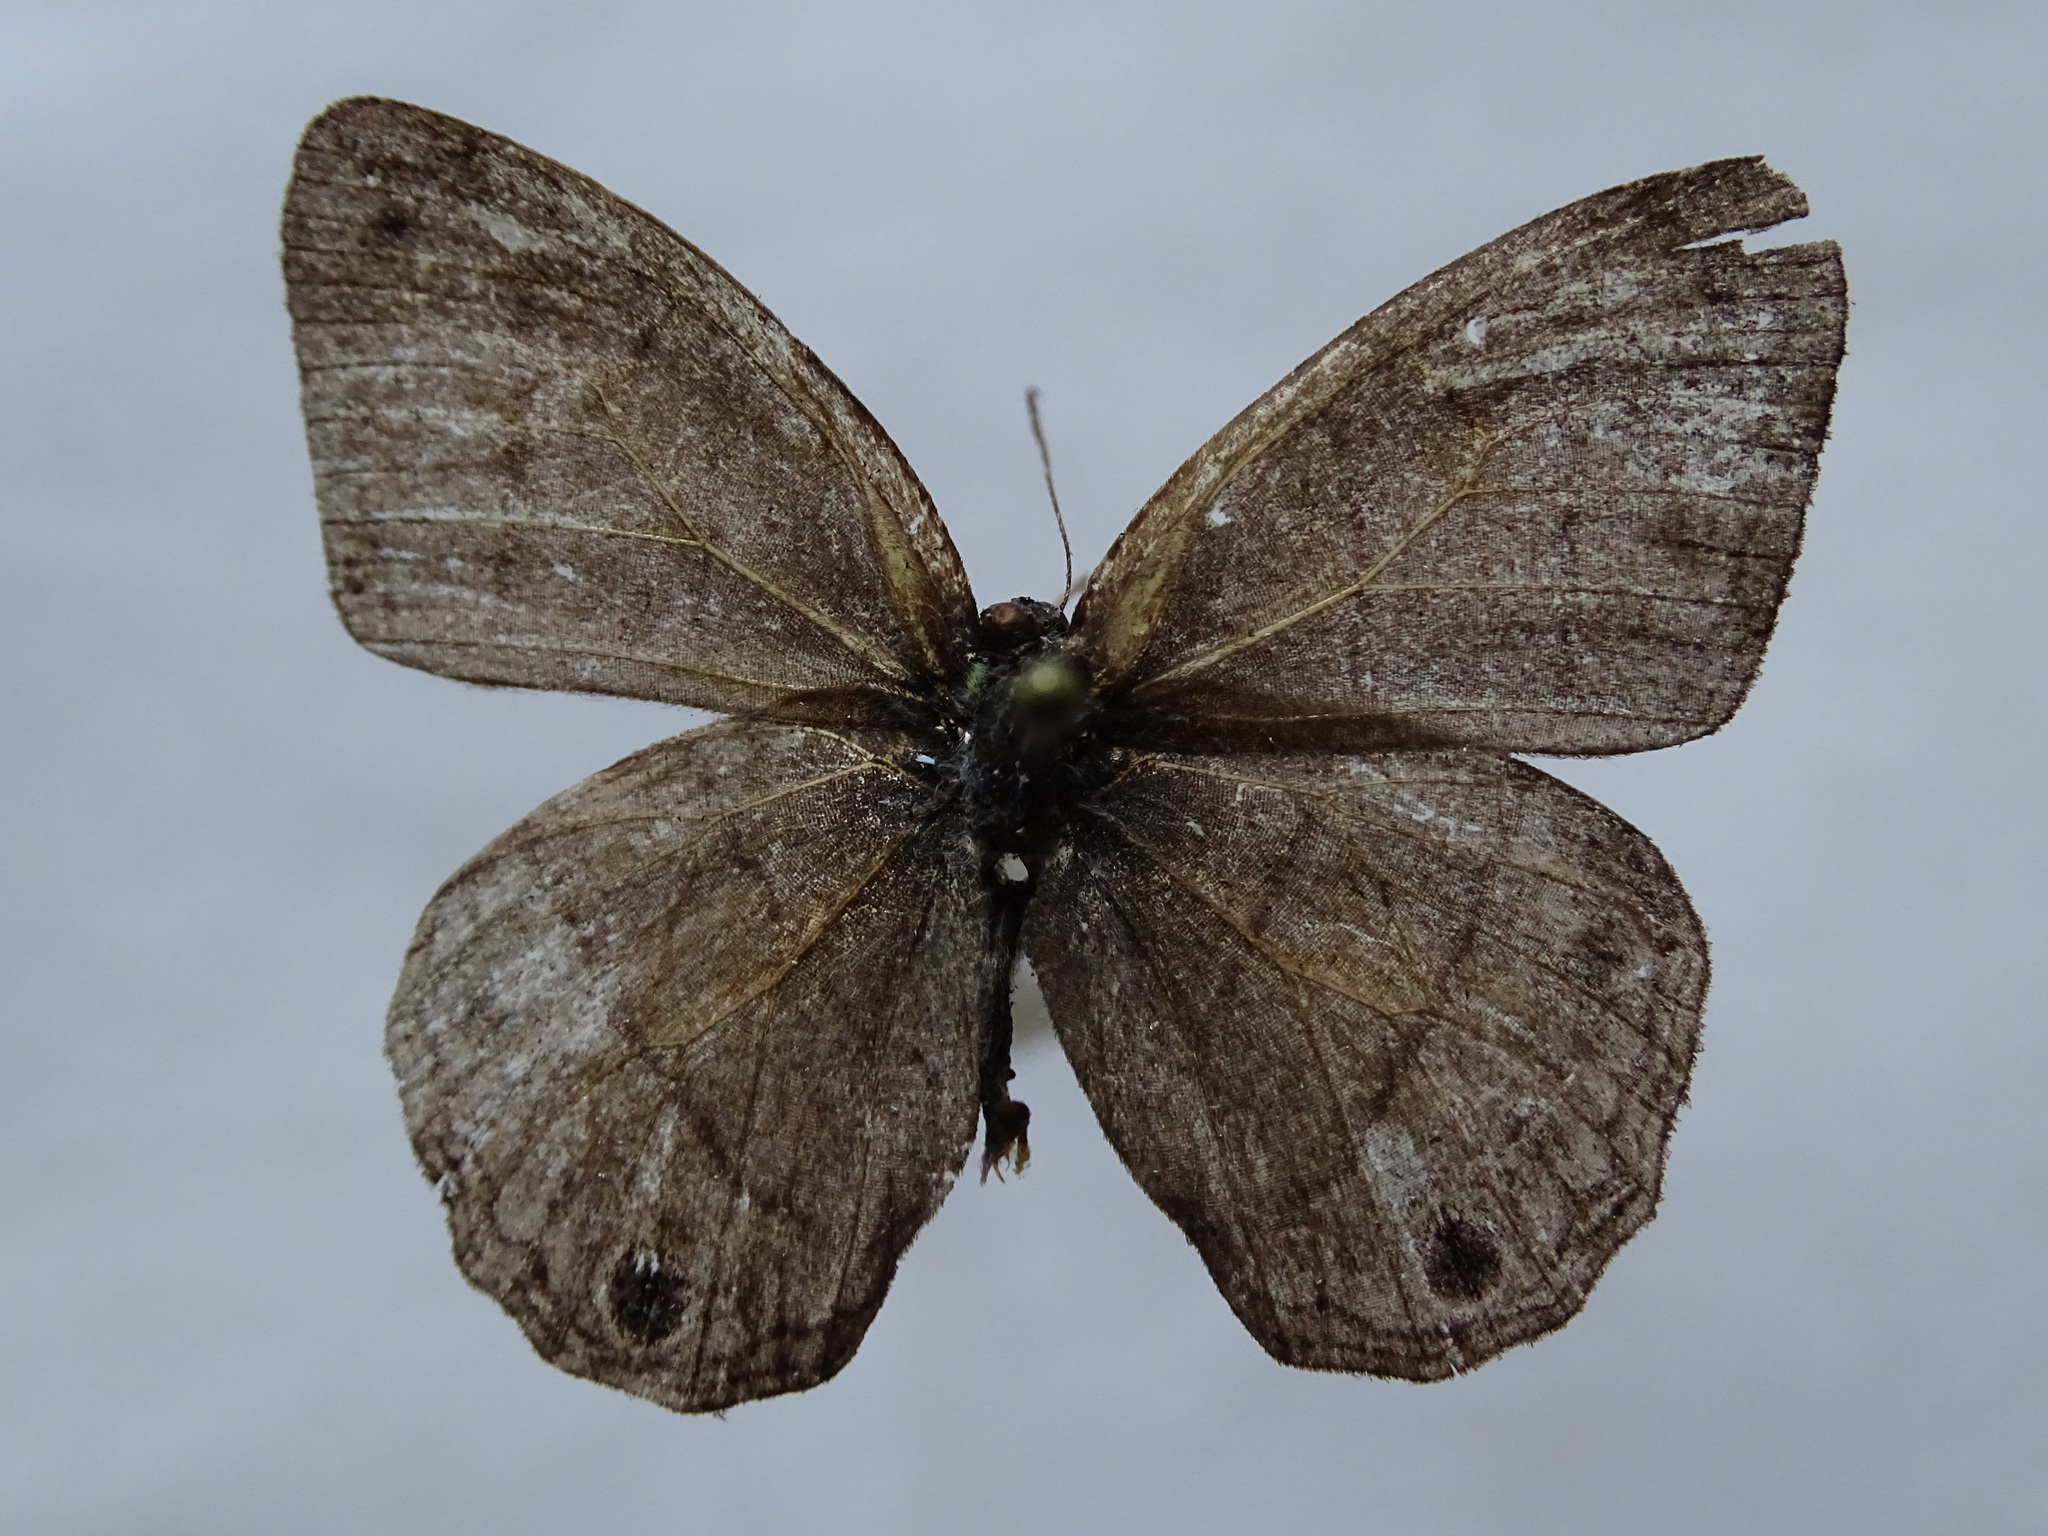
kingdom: Animalia
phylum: Arthropoda
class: Insecta
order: Lepidoptera
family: Nymphalidae
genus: Euptychia
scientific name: Euptychia Cissia pompilia
